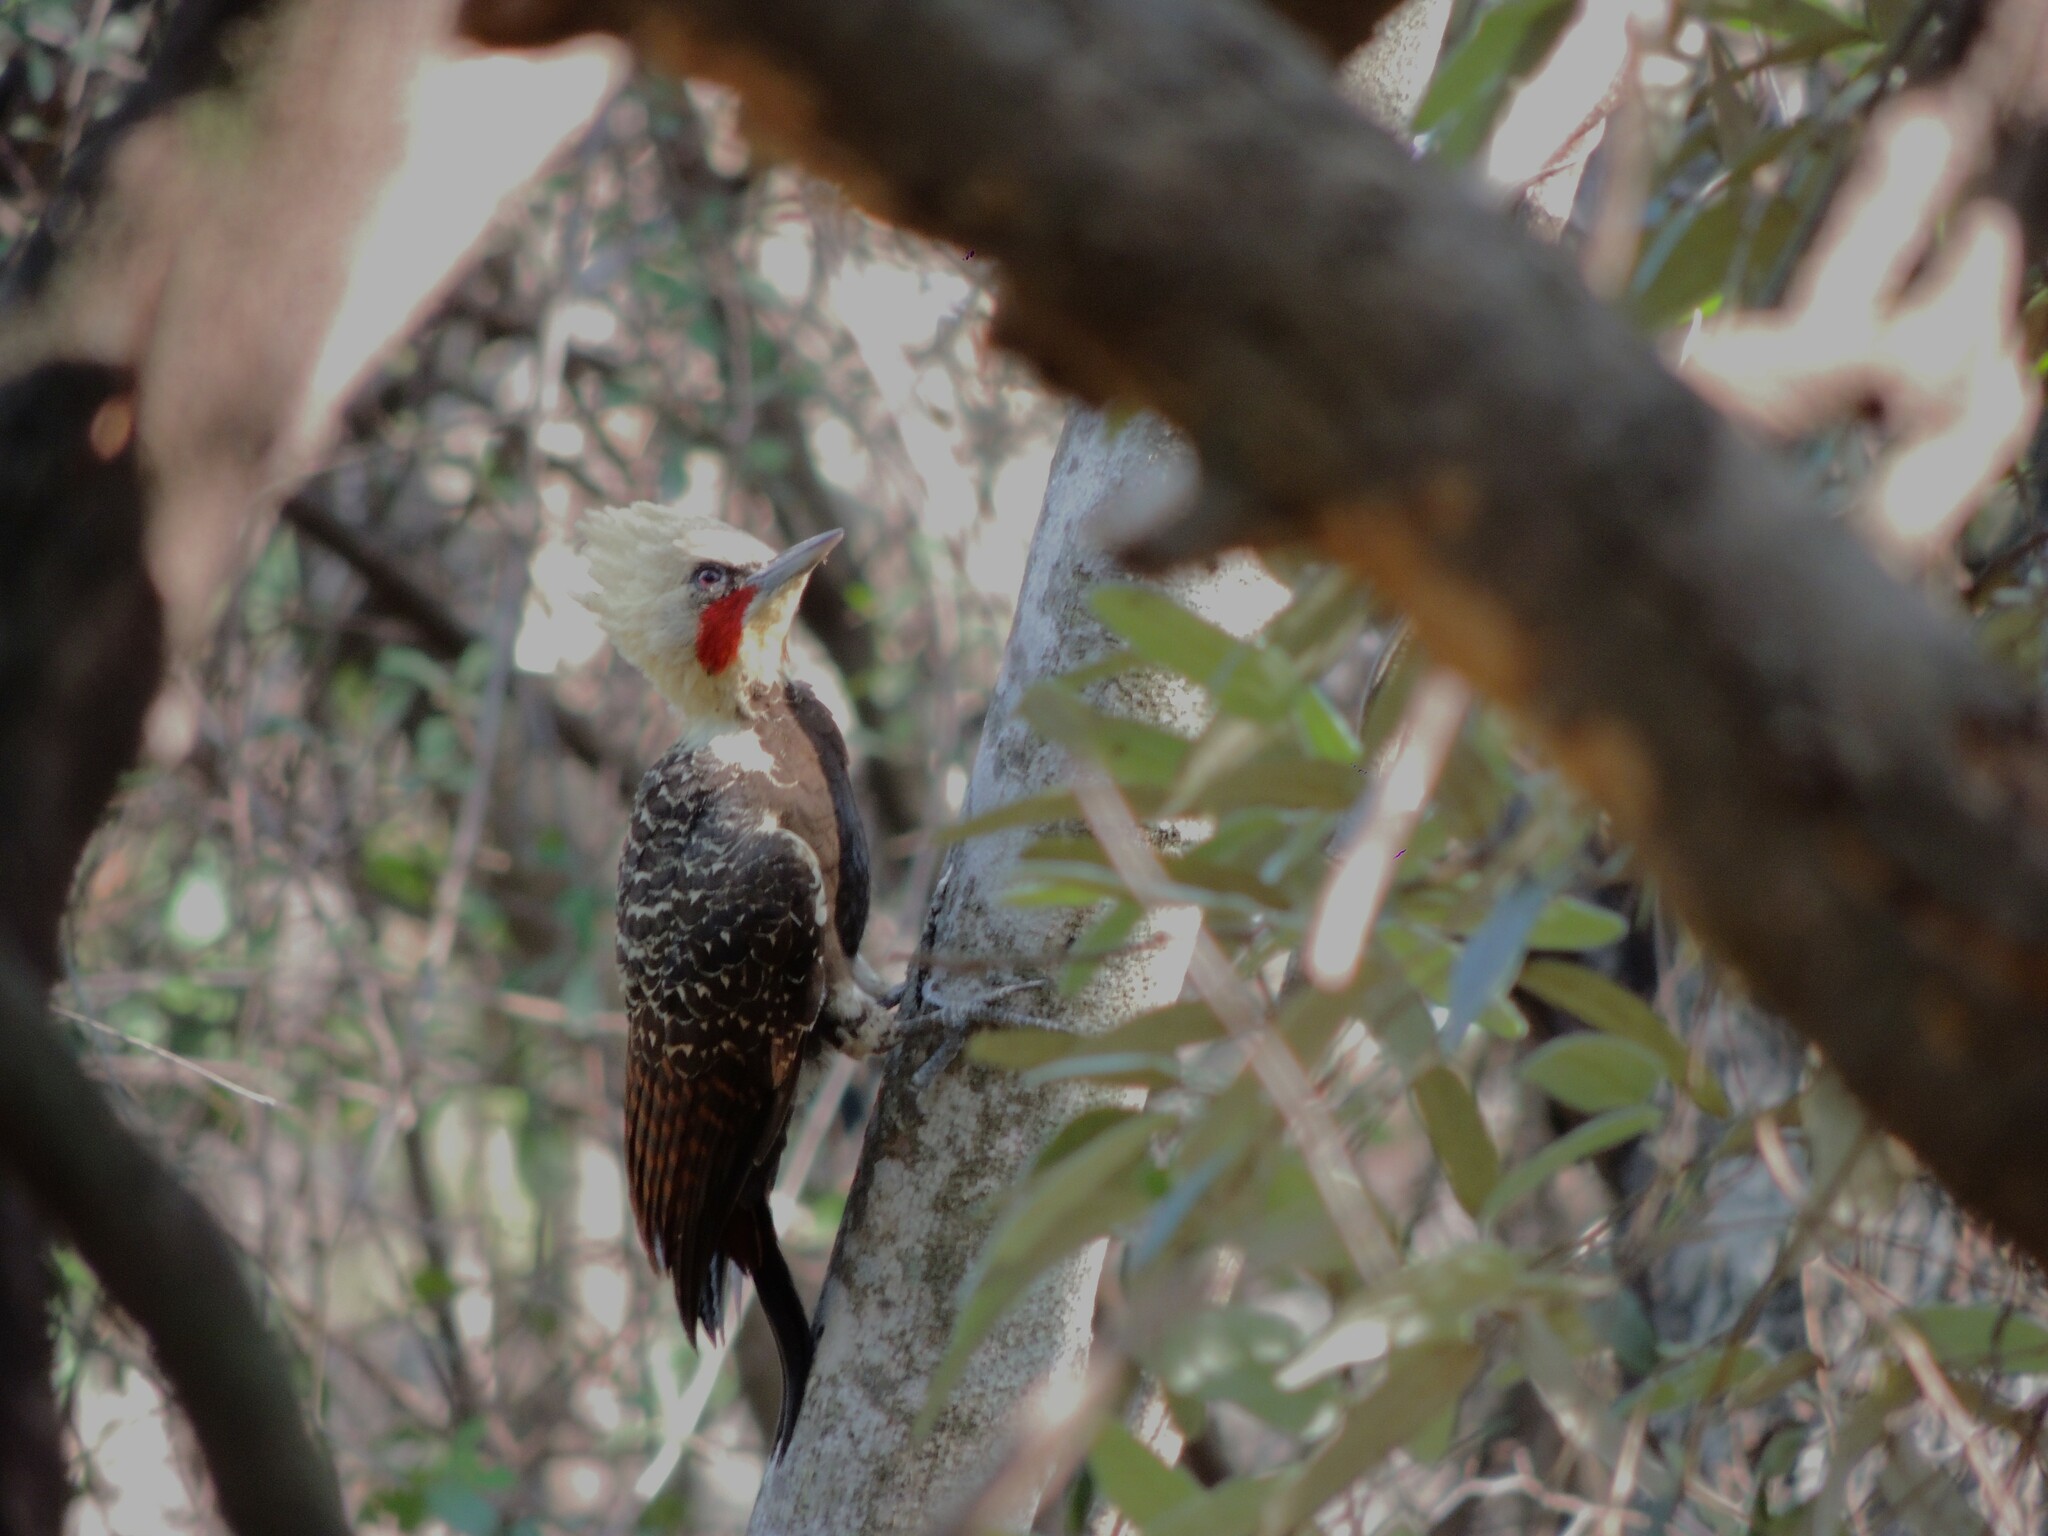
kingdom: Animalia
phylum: Chordata
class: Aves
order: Piciformes
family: Picidae
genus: Celeus
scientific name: Celeus lugubris
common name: Pale-crested woodpecker
